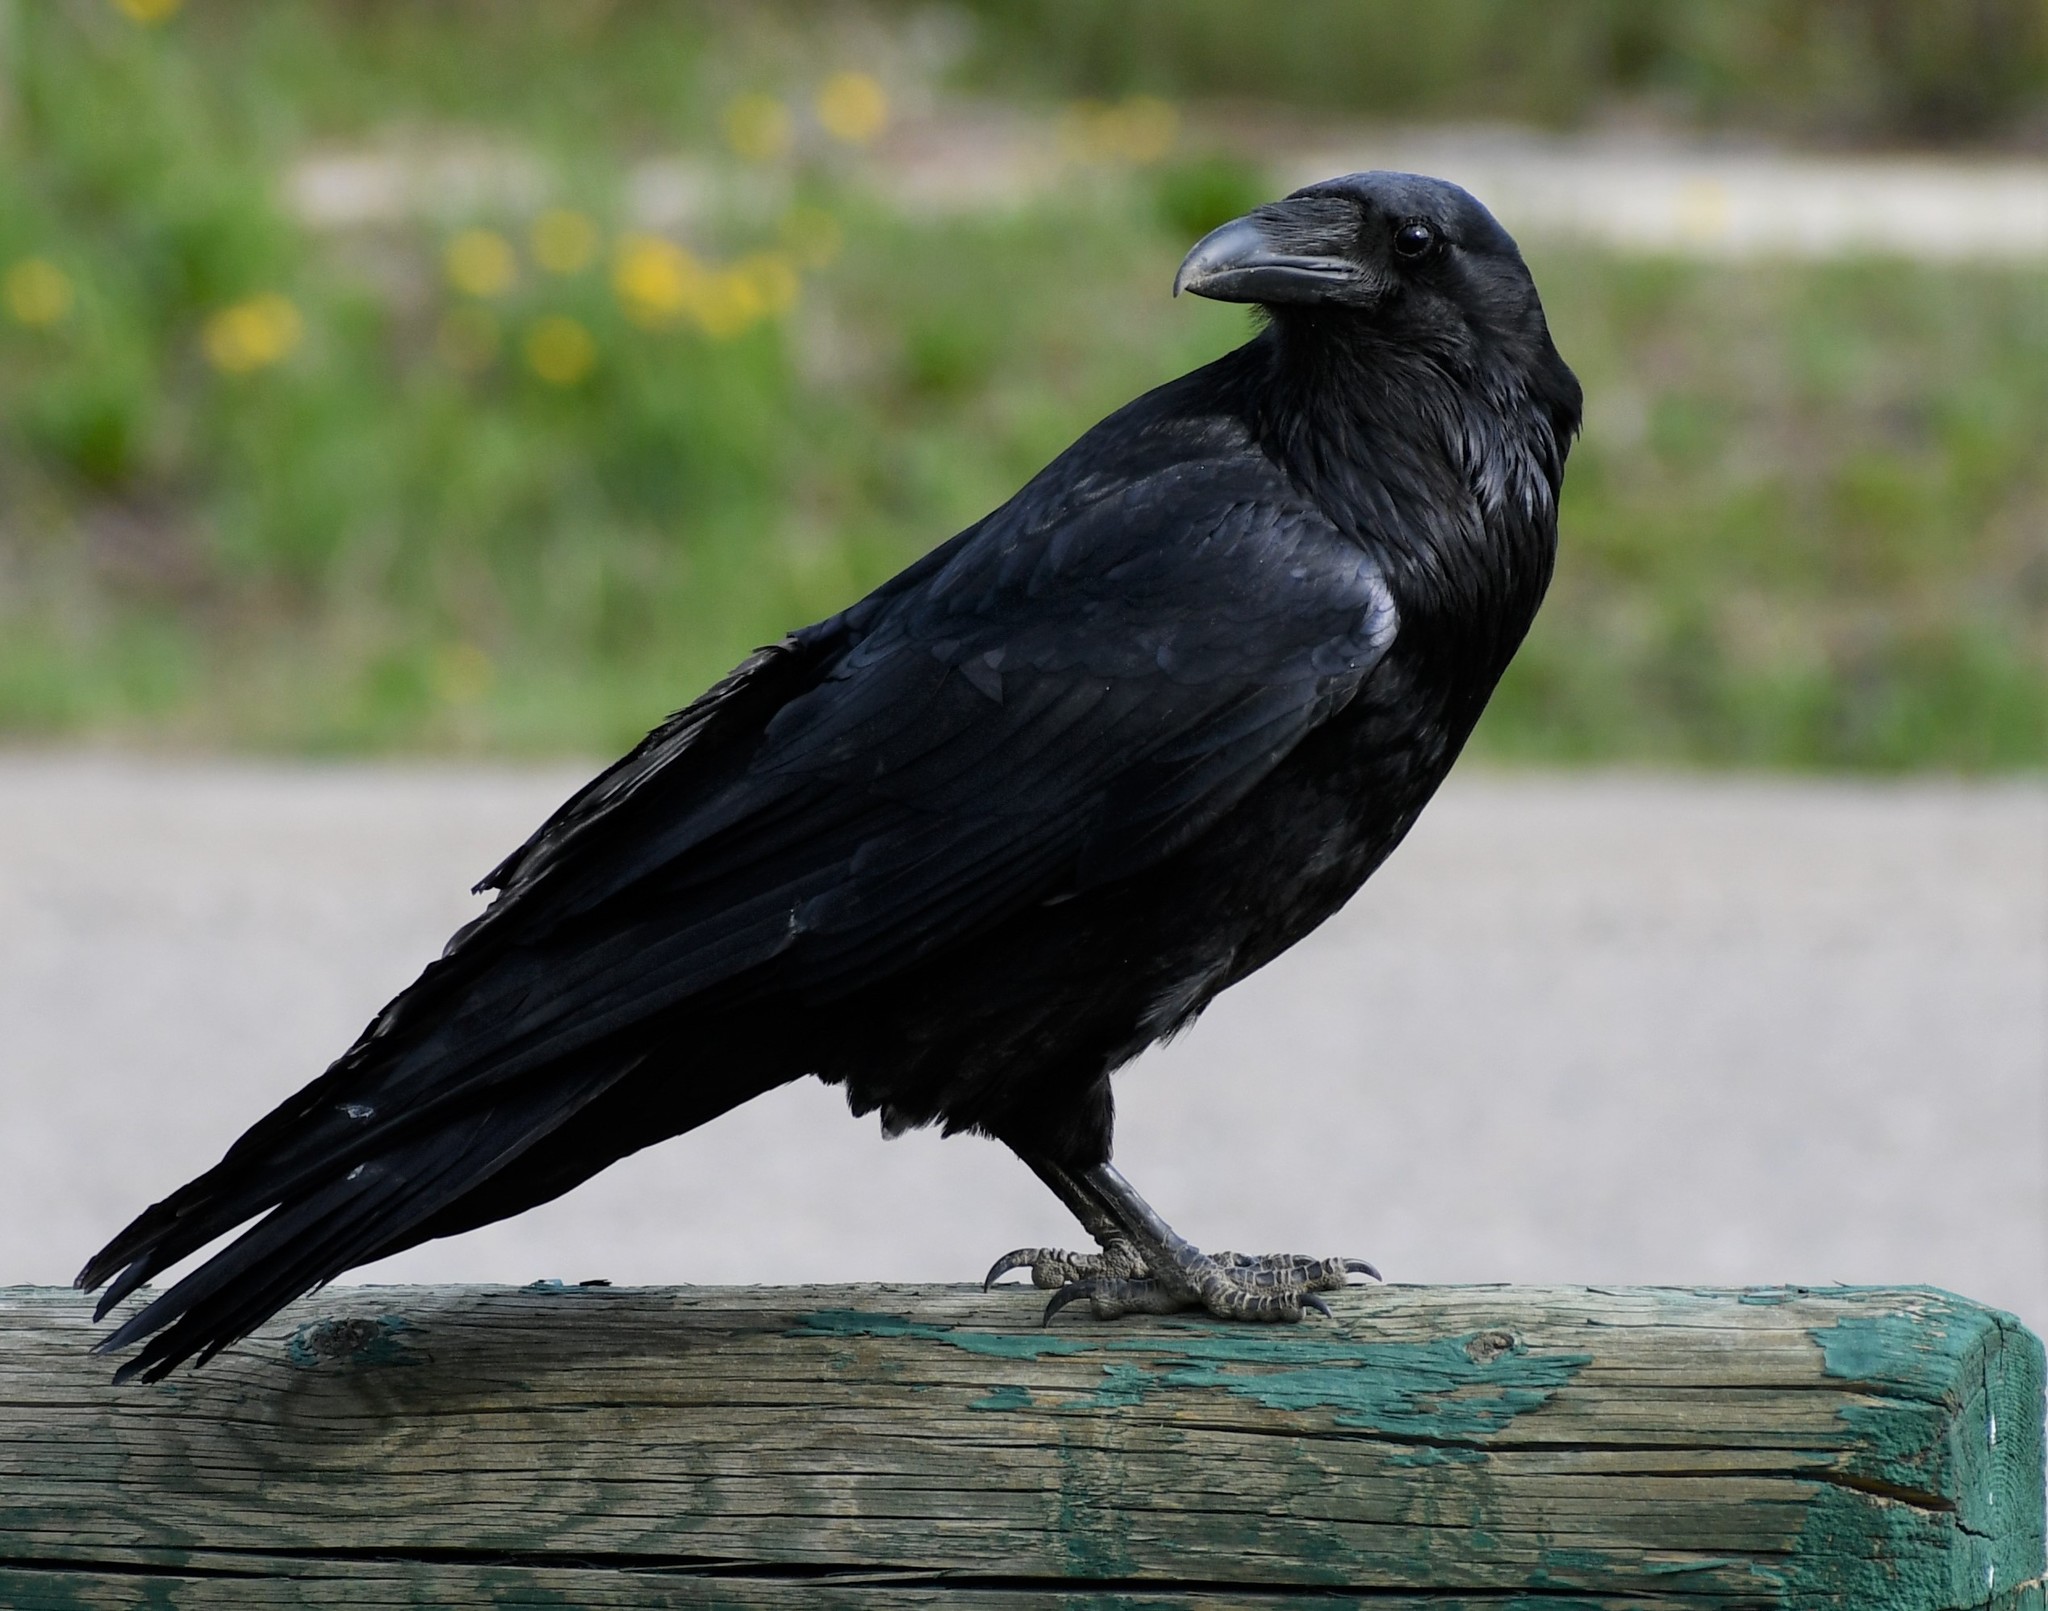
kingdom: Animalia
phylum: Chordata
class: Aves
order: Passeriformes
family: Corvidae
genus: Corvus
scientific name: Corvus corax
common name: Common raven
